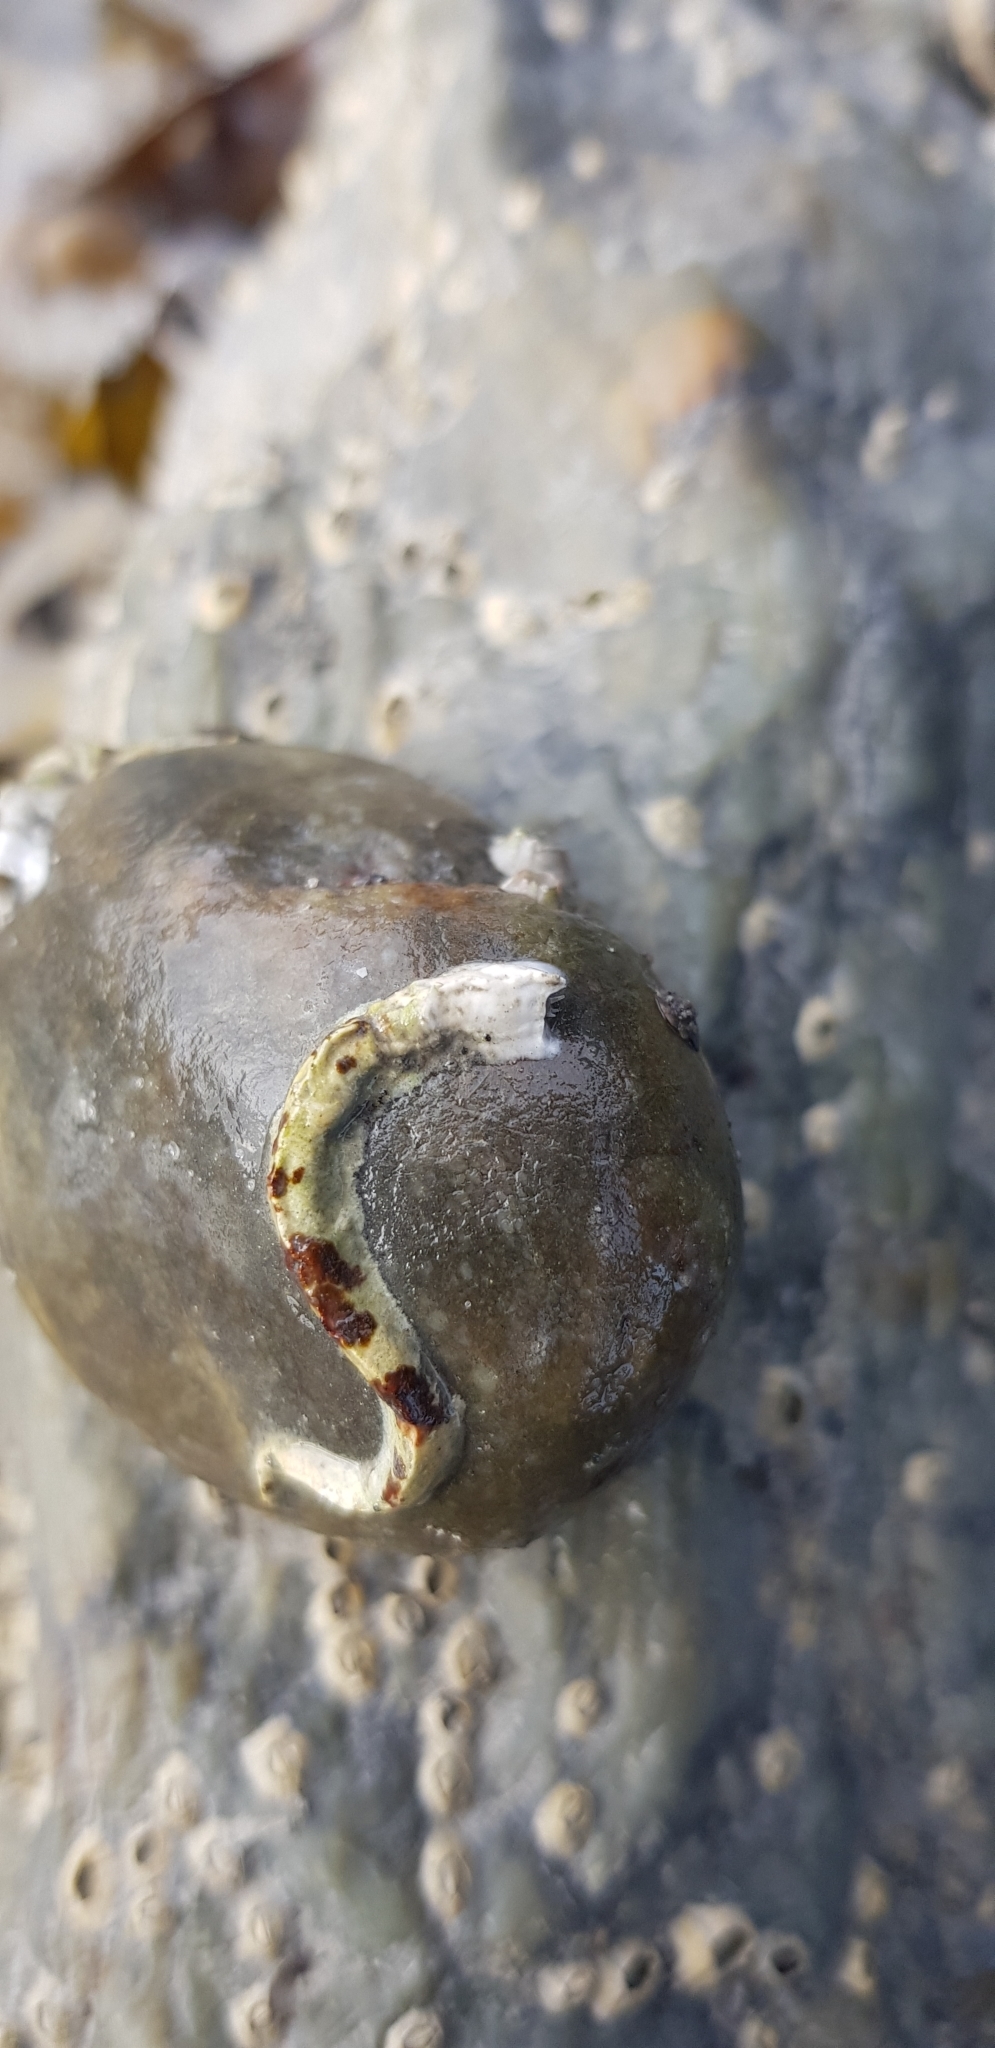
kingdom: Animalia
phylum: Annelida
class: Polychaeta
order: Sabellida
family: Serpulidae
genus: Spirobranchus
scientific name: Spirobranchus lamarcki
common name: Keelworm
